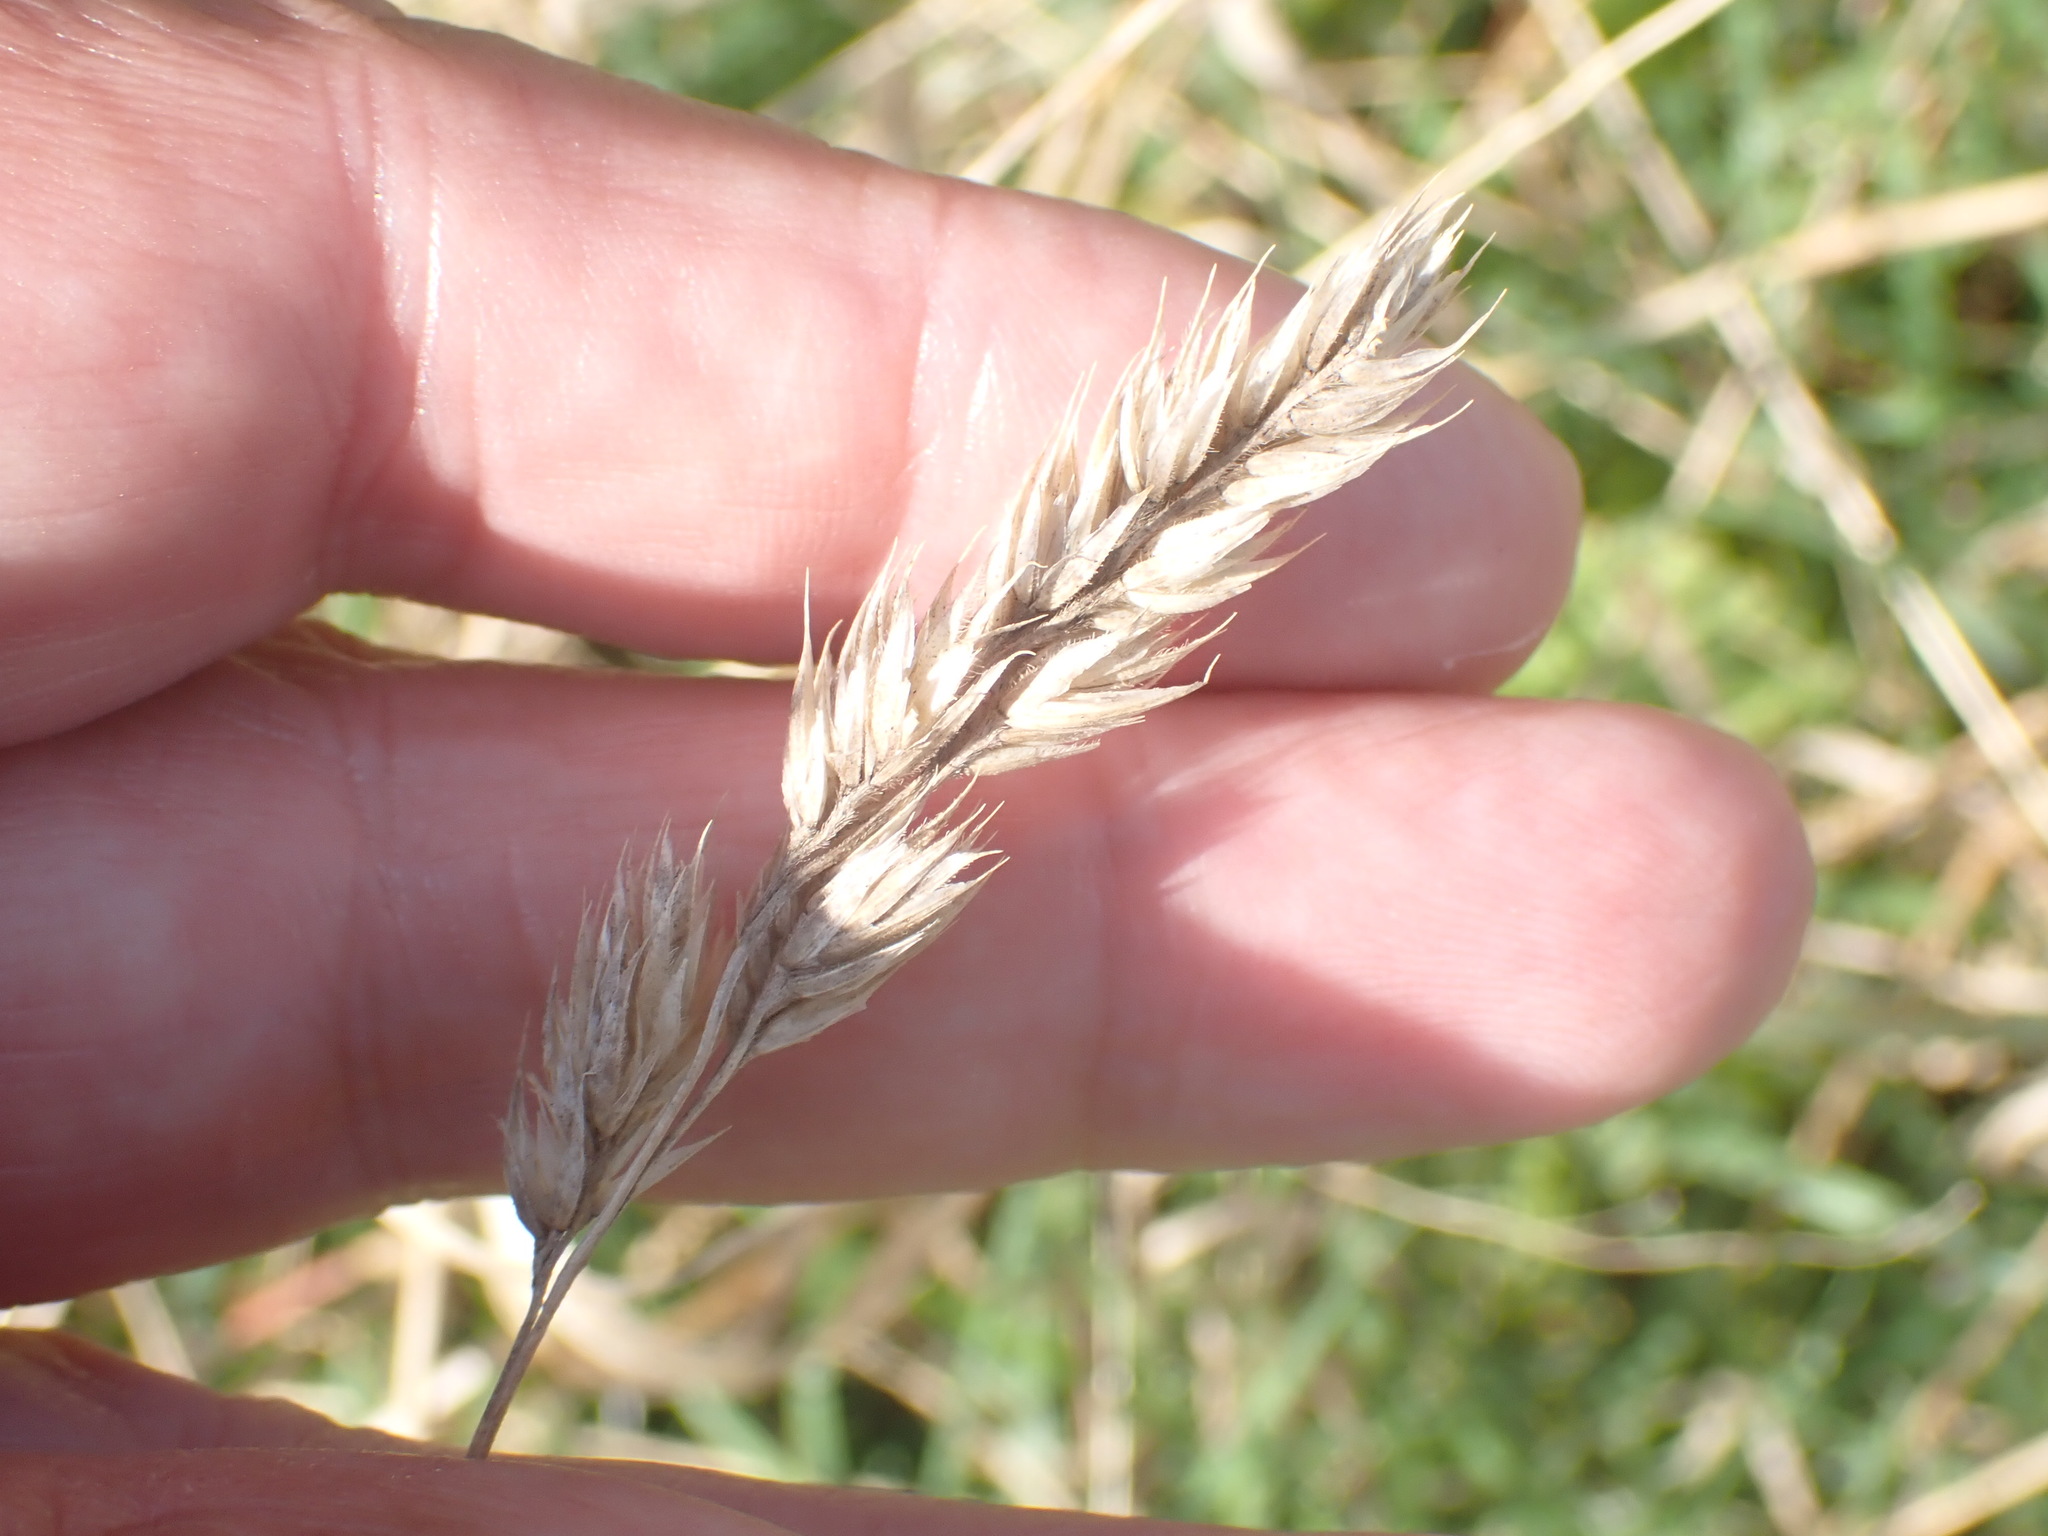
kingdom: Plantae
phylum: Tracheophyta
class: Liliopsida
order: Poales
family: Poaceae
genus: Dactylis
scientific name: Dactylis glomerata
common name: Orchardgrass
